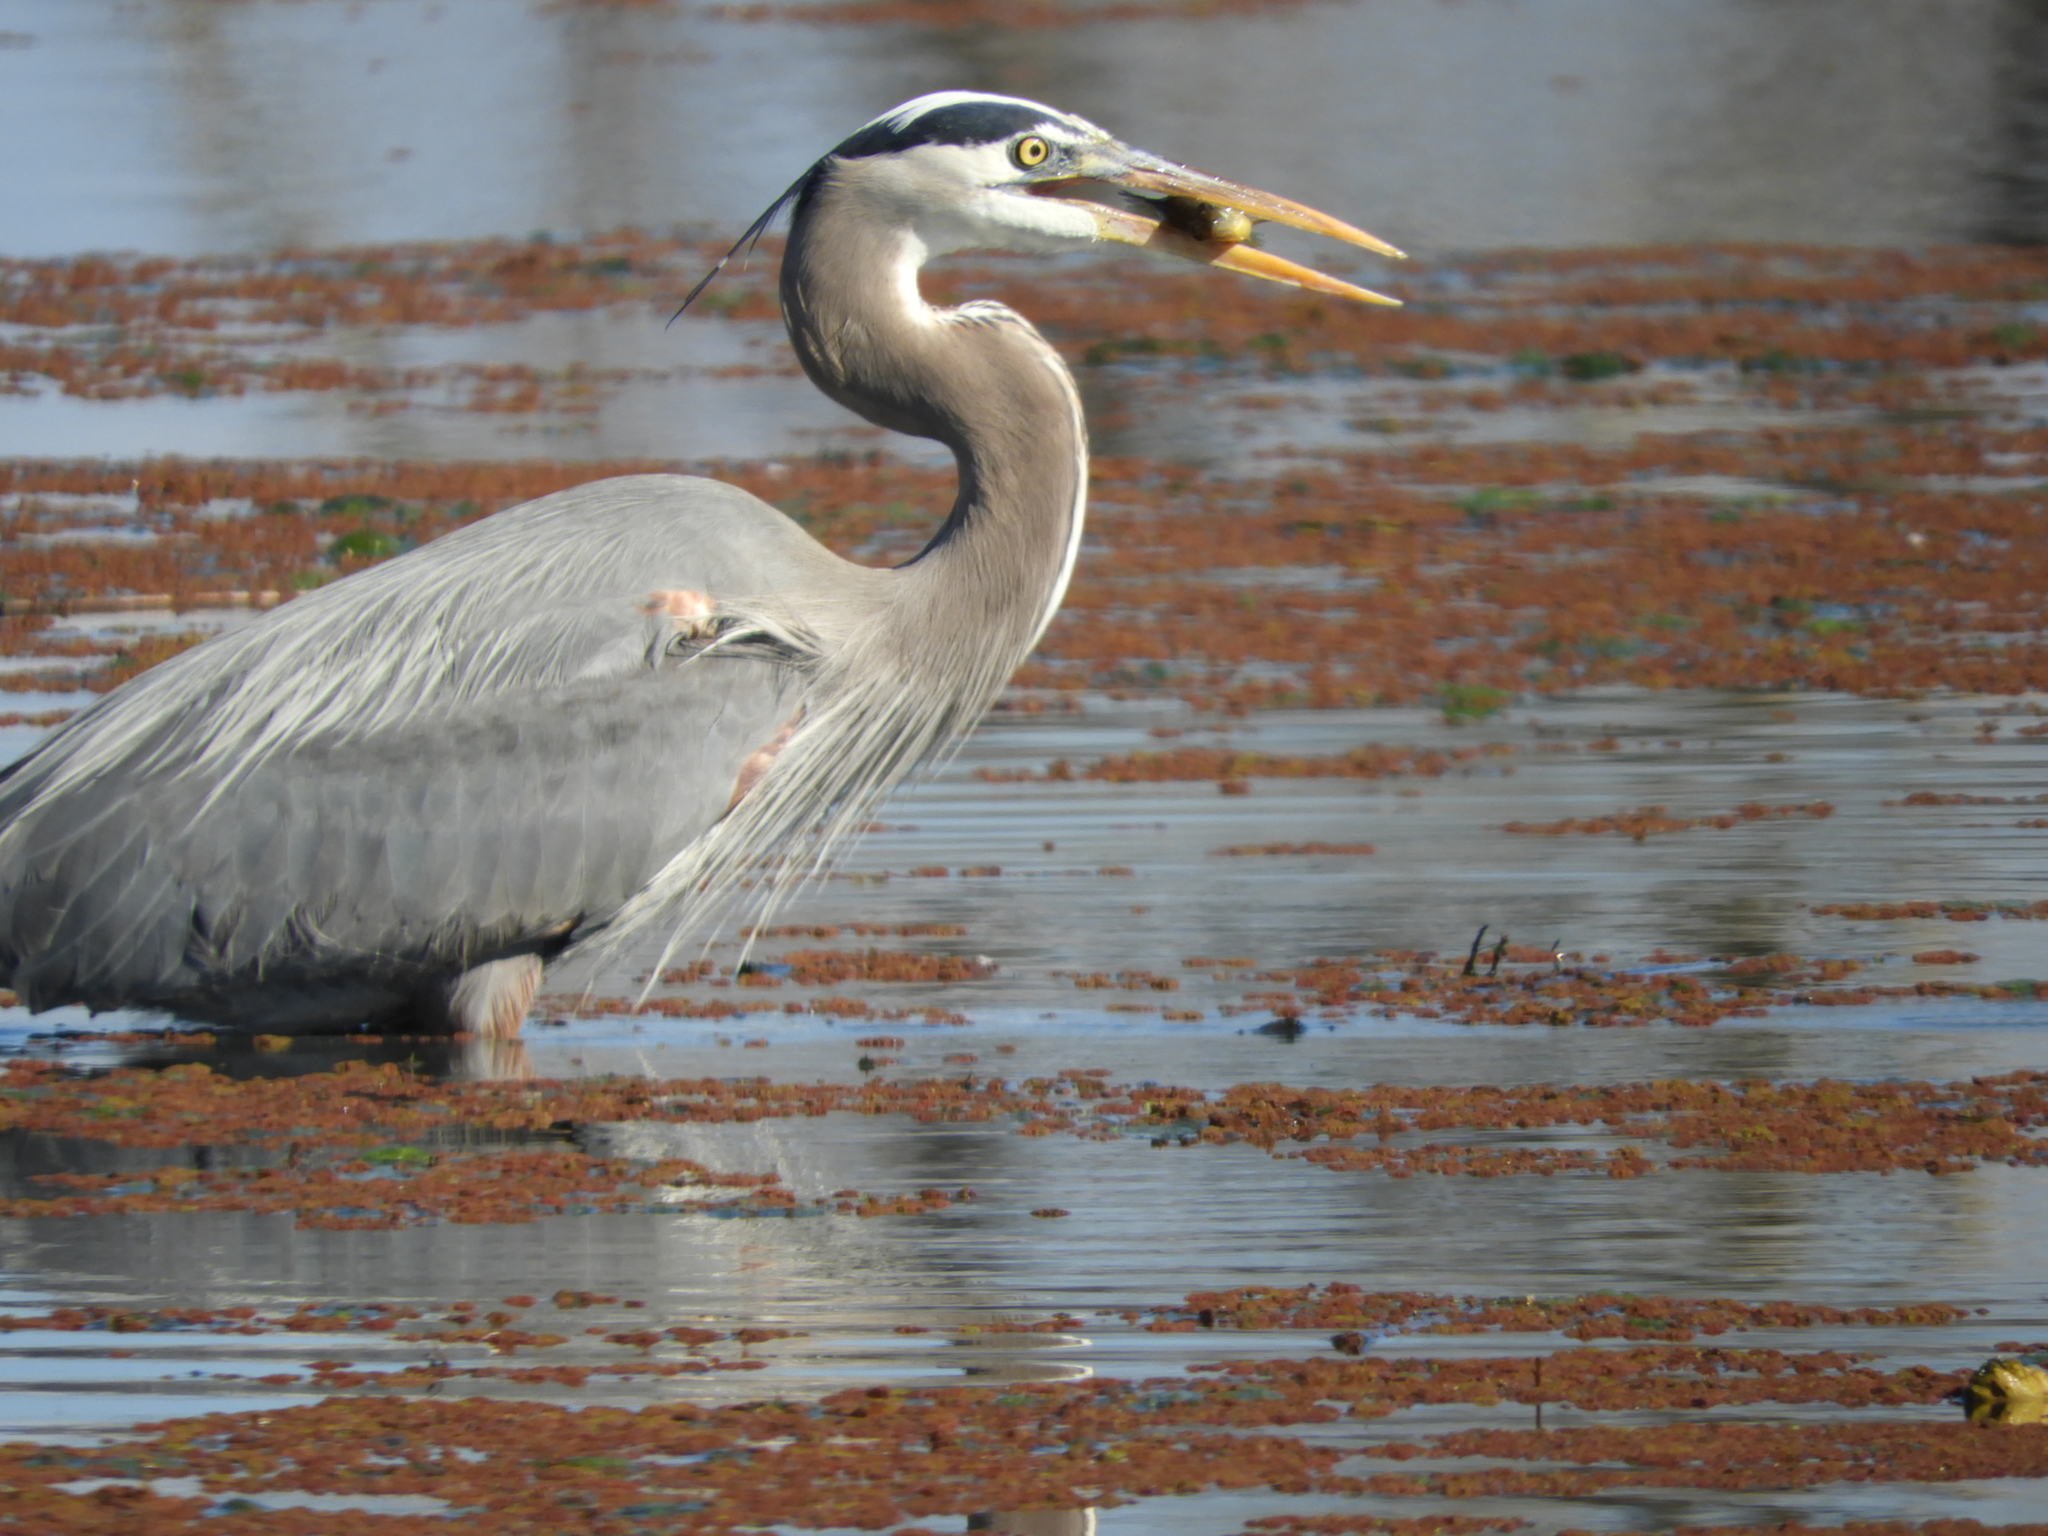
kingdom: Animalia
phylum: Chordata
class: Aves
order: Pelecaniformes
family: Ardeidae
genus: Ardea
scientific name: Ardea herodias
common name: Great blue heron
